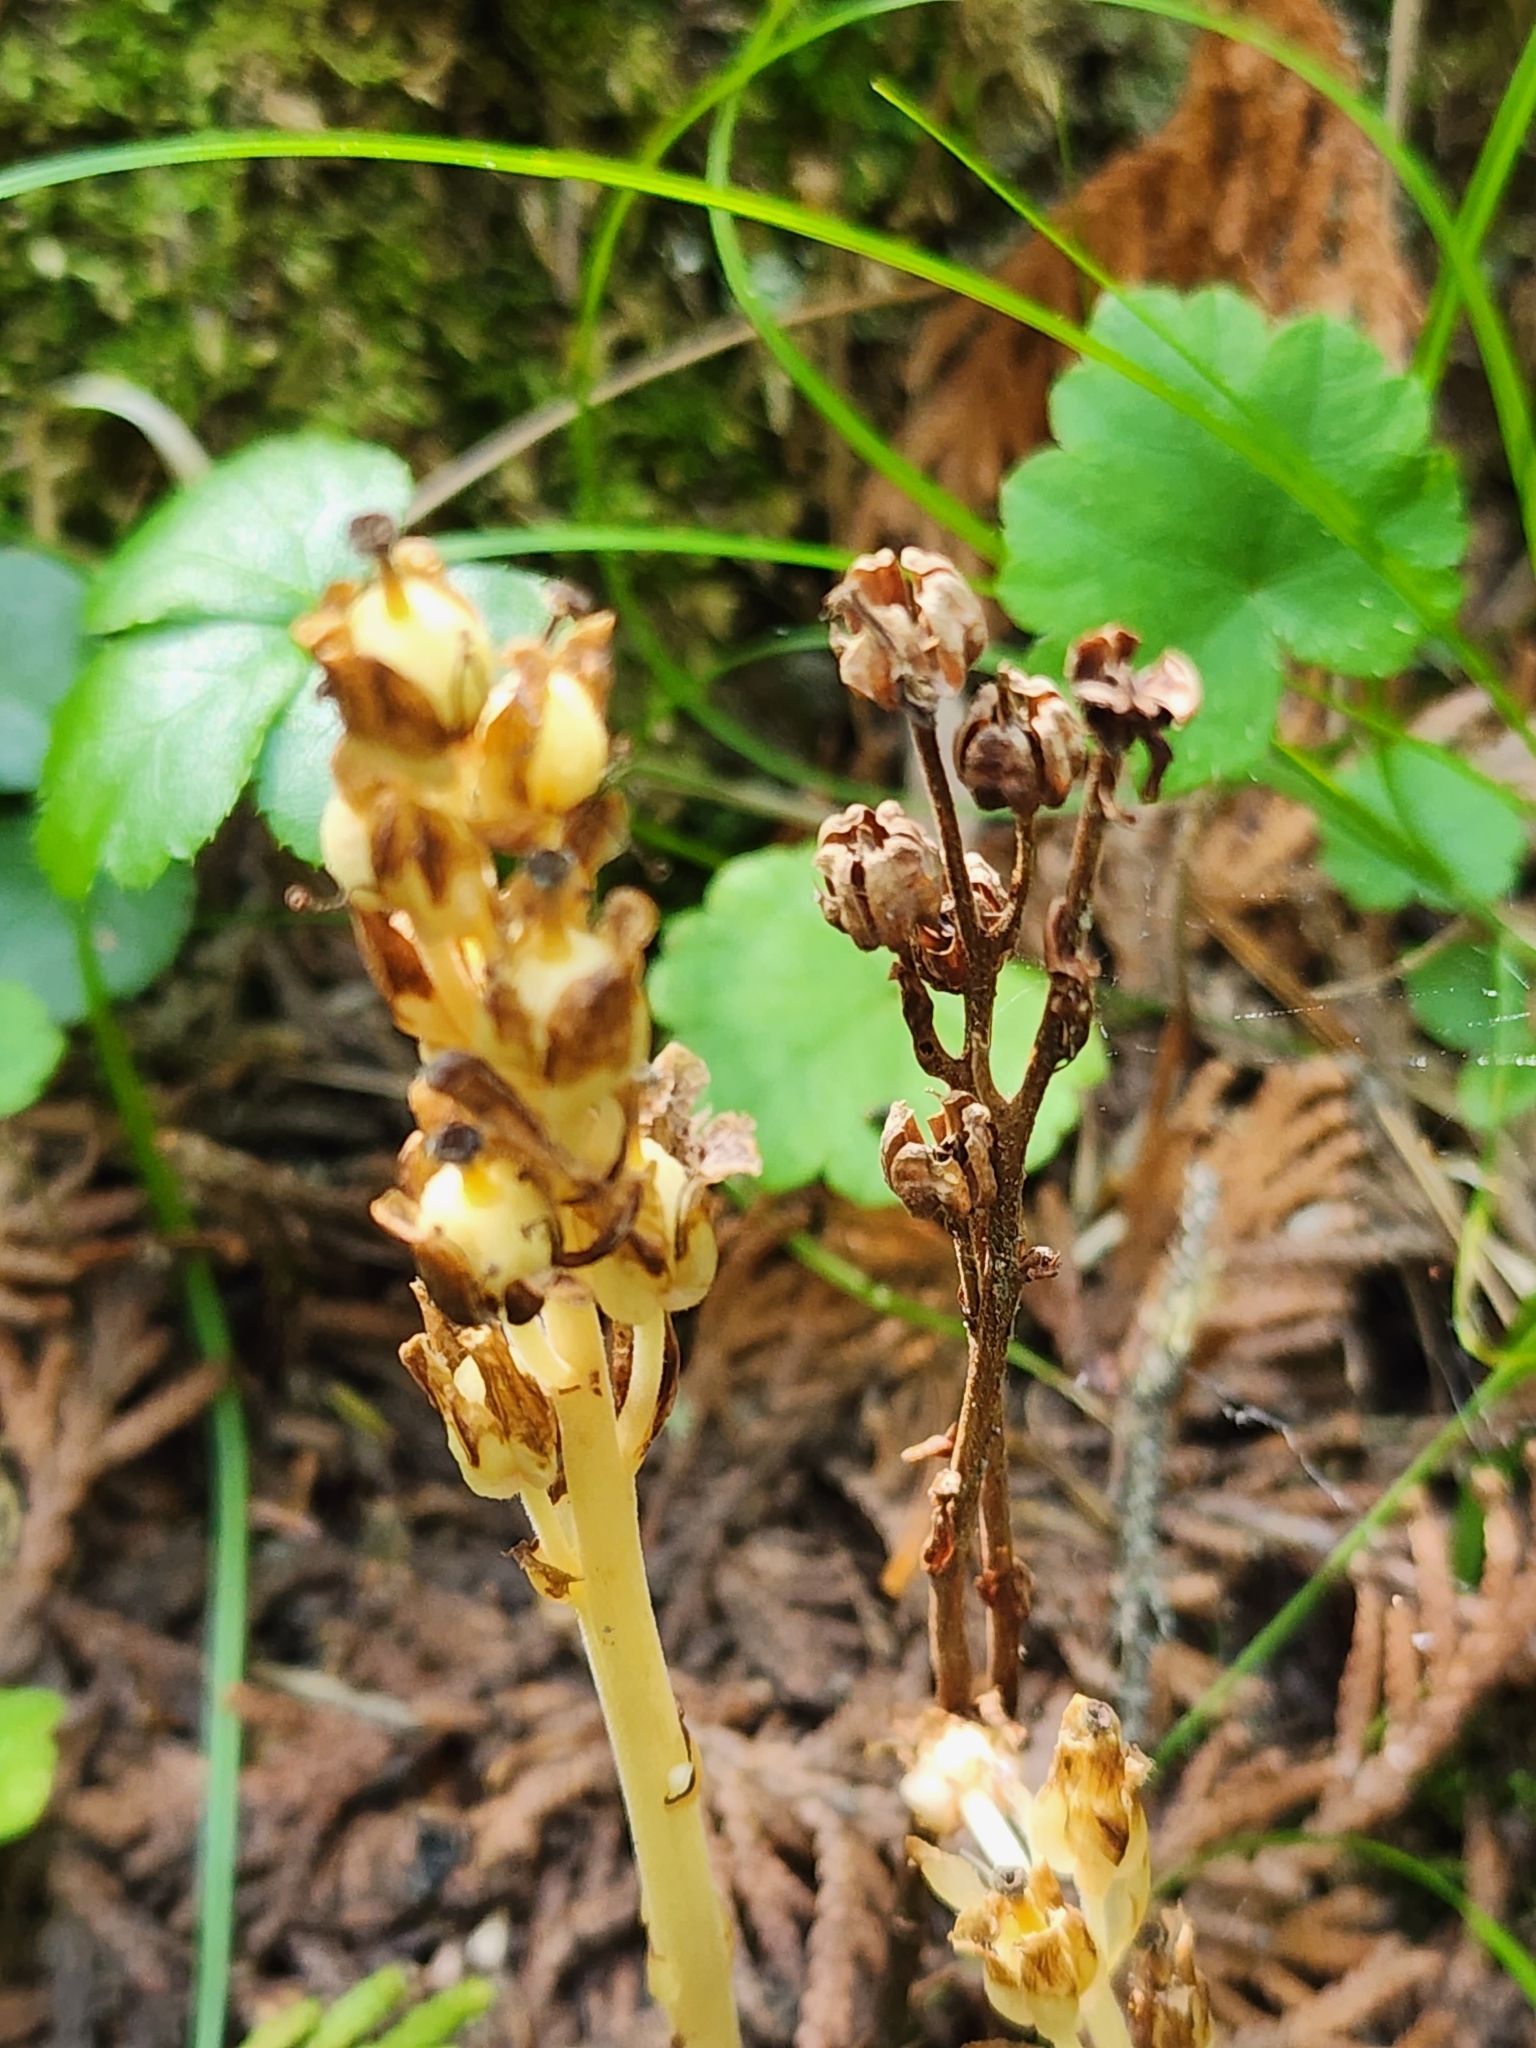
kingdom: Plantae
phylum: Tracheophyta
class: Magnoliopsida
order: Ericales
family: Ericaceae
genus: Hypopitys
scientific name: Hypopitys monotropa
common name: Yellow bird's-nest
